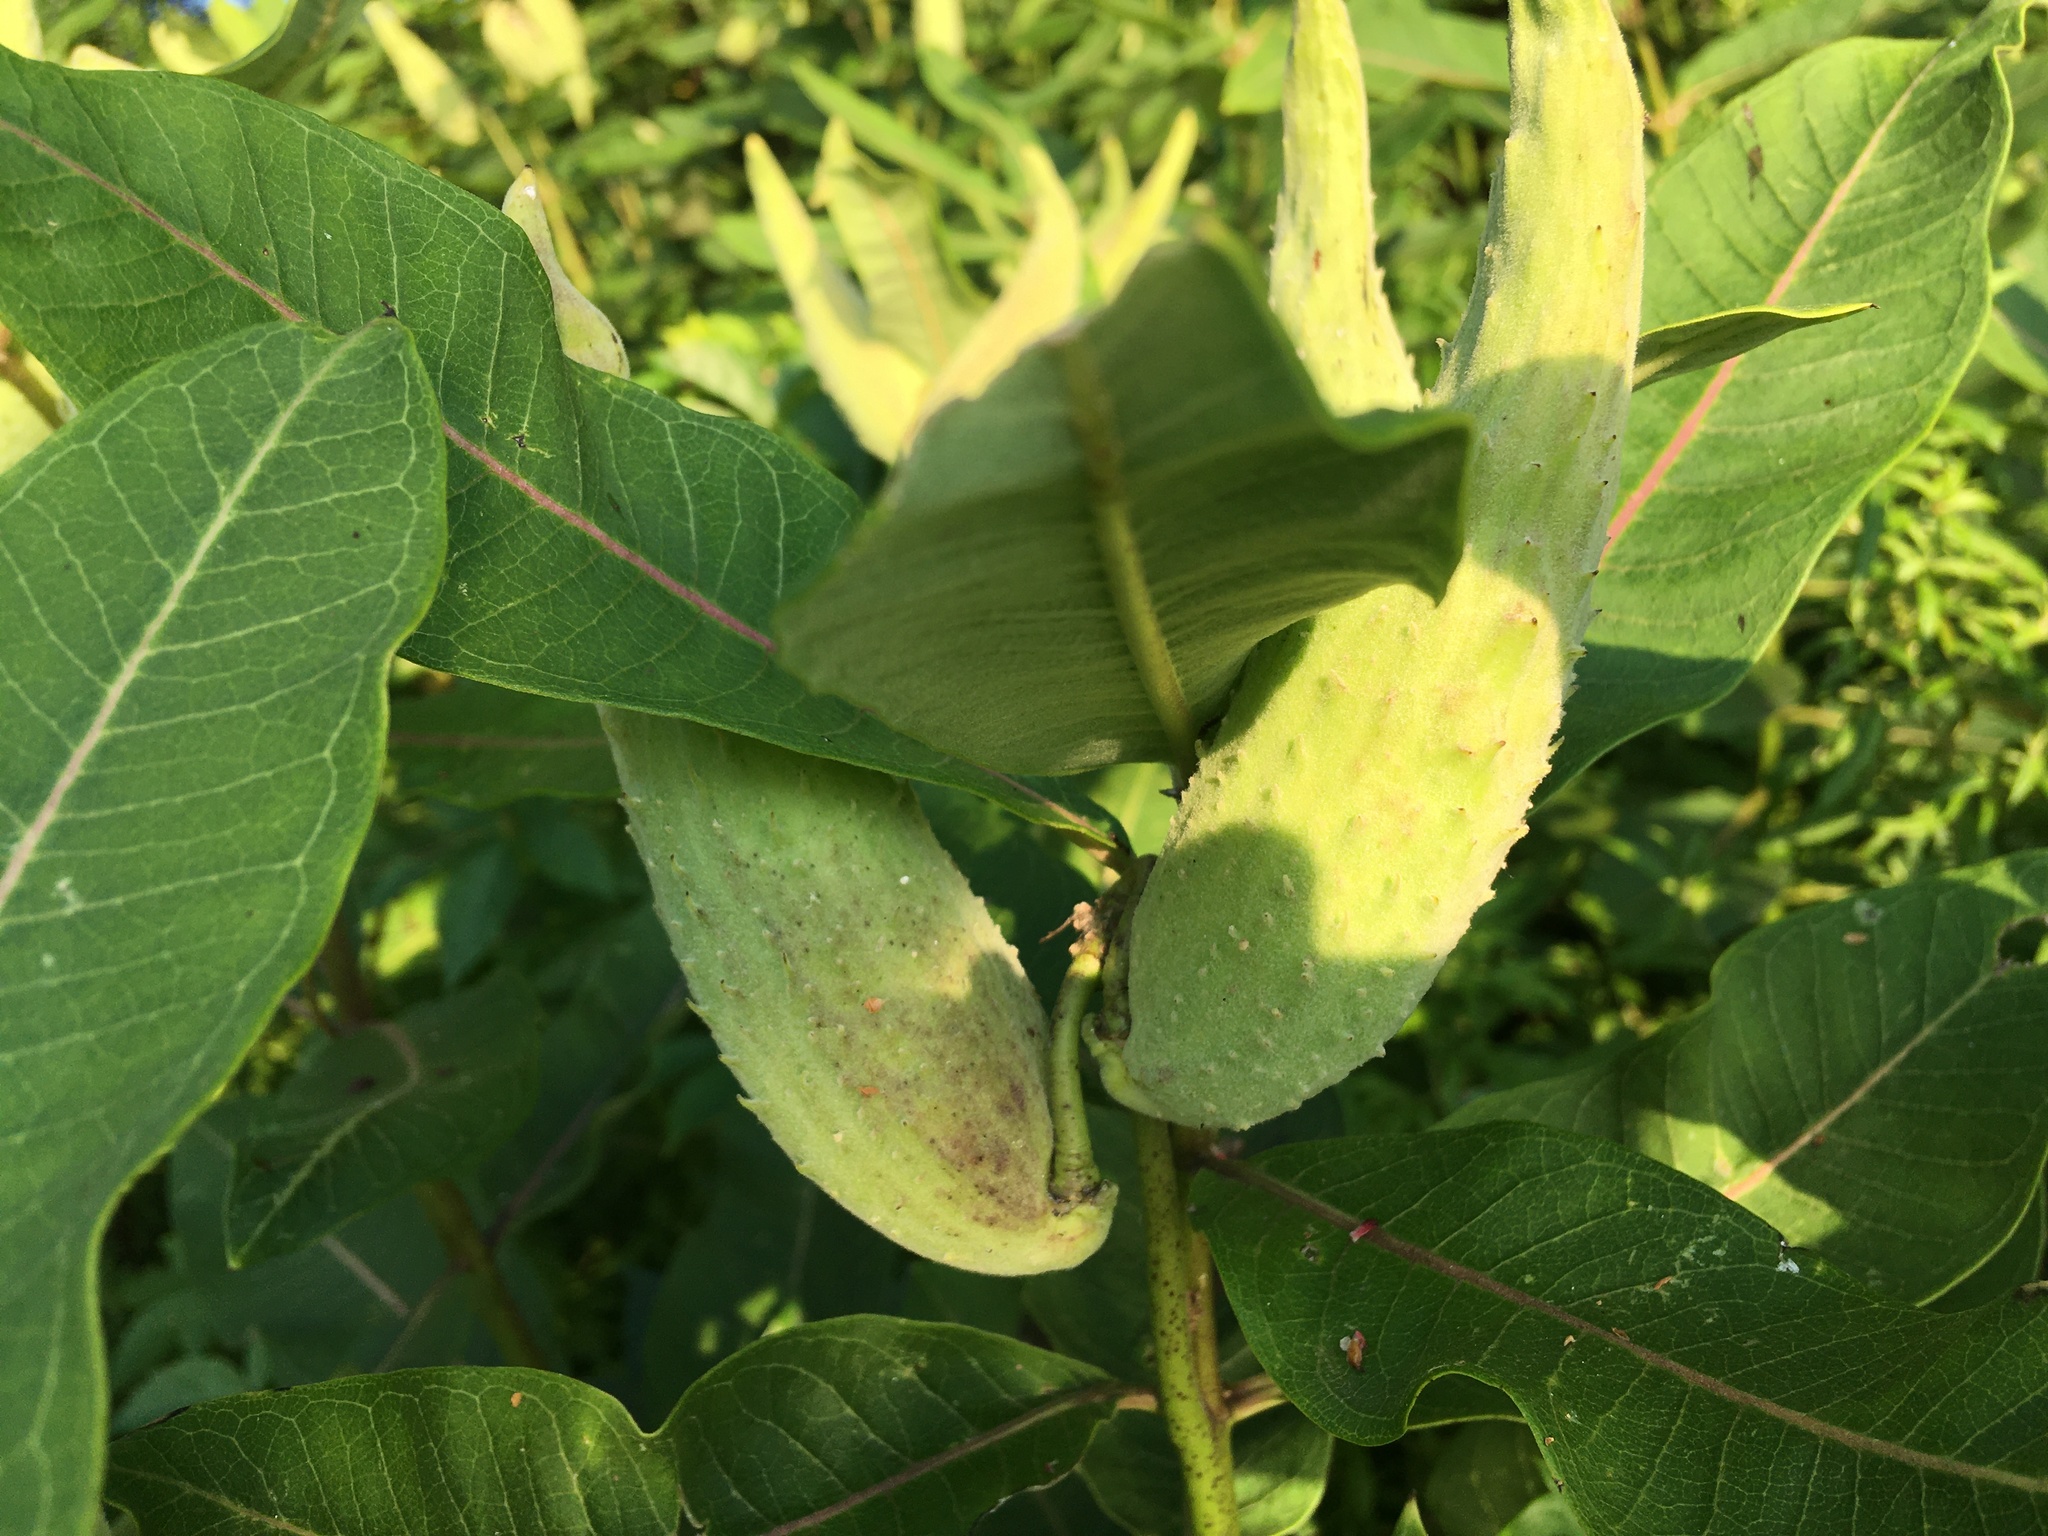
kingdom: Plantae
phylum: Tracheophyta
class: Magnoliopsida
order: Gentianales
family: Apocynaceae
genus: Asclepias
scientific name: Asclepias syriaca
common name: Common milkweed
